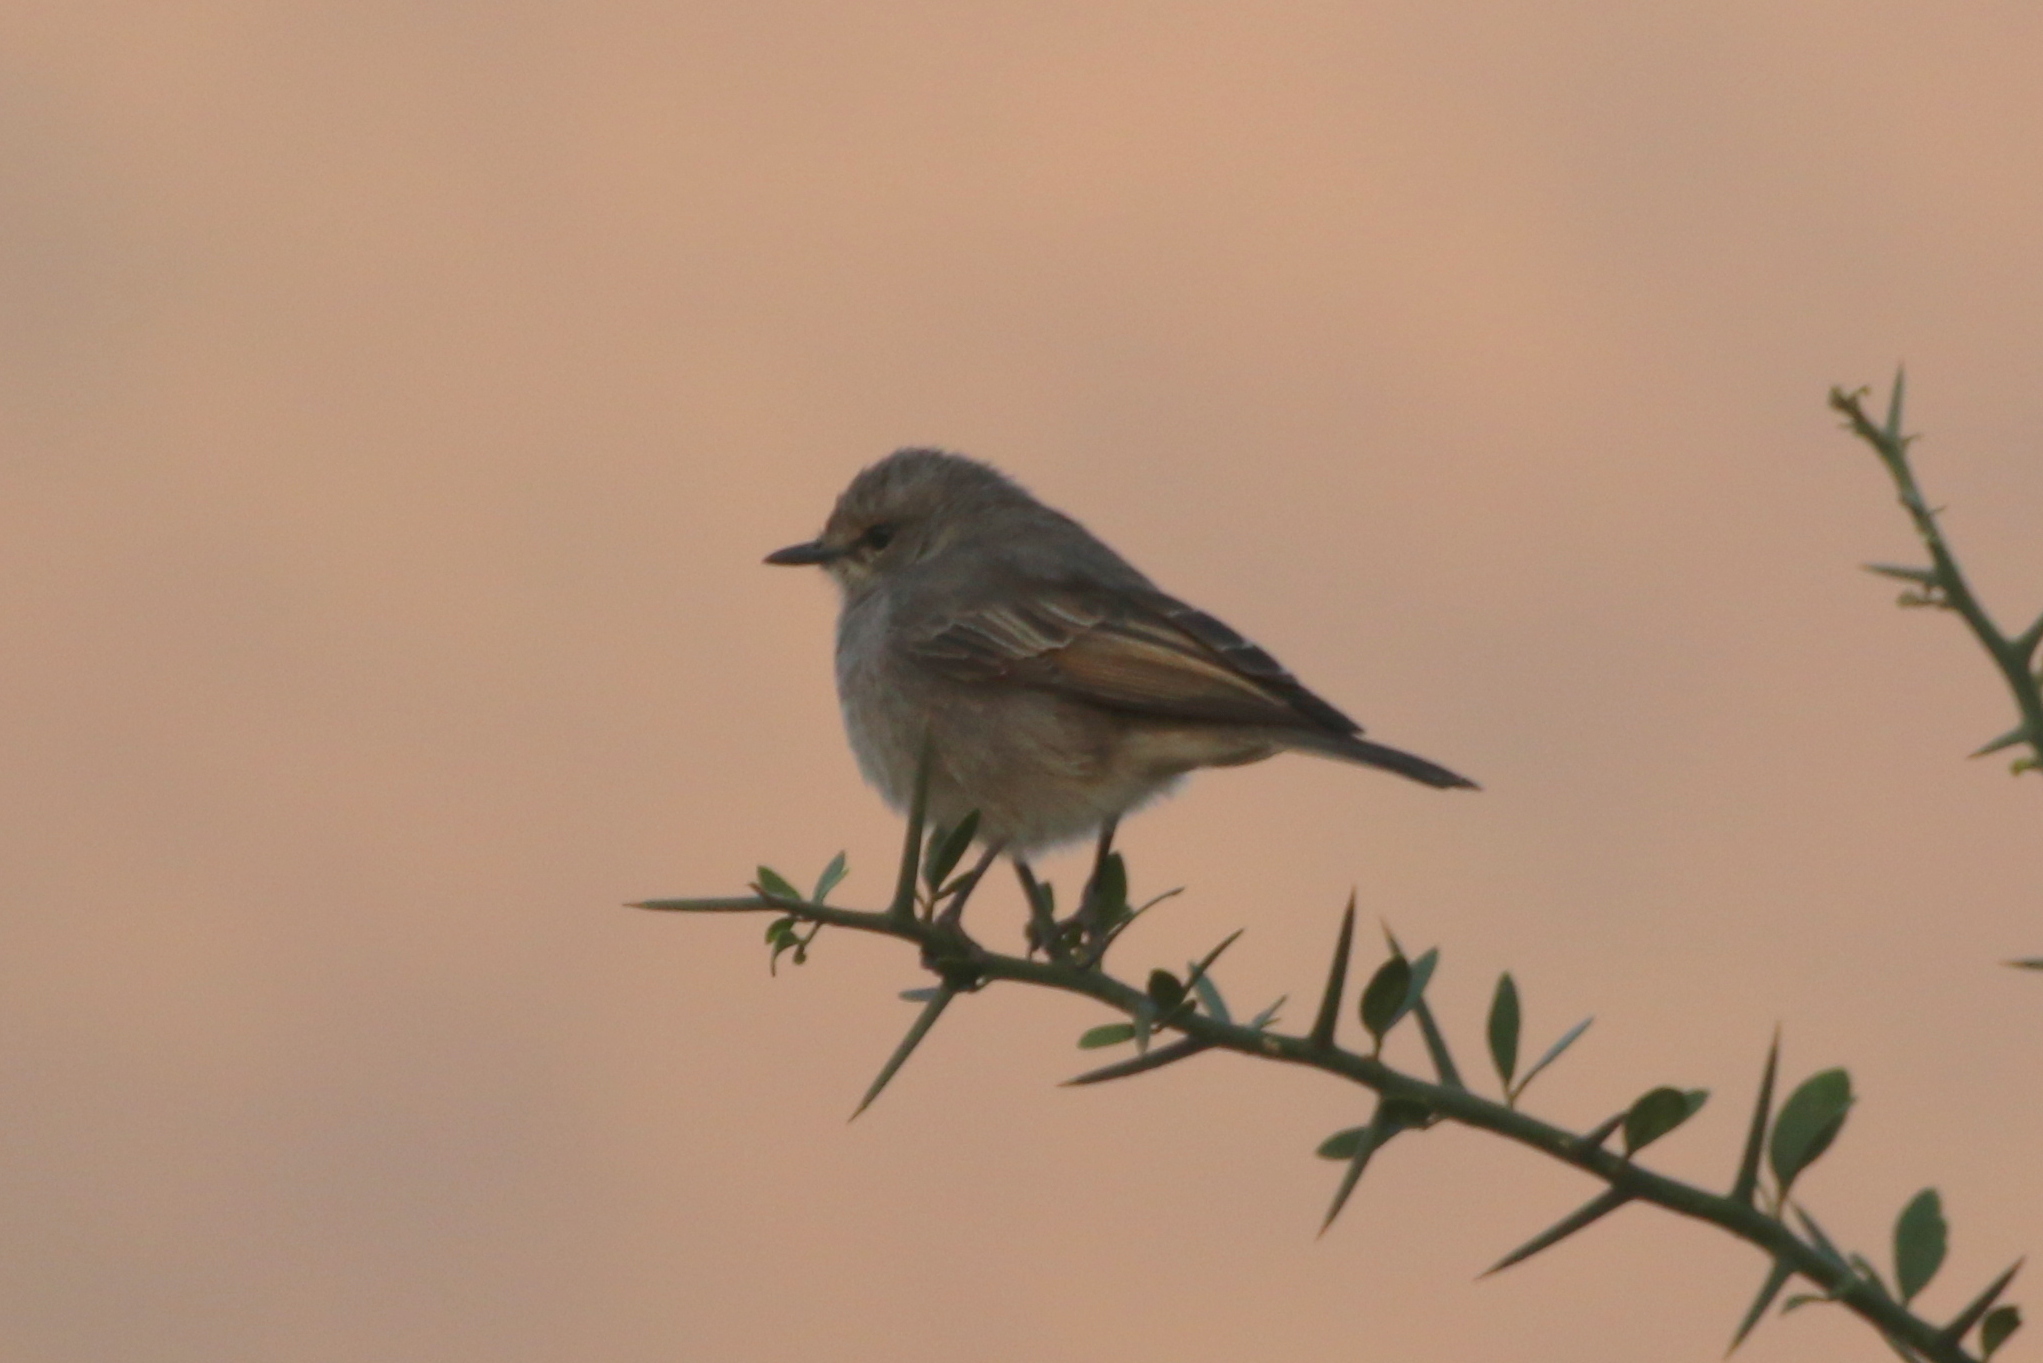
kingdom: Animalia
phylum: Chordata
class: Aves
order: Passeriformes
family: Muscicapidae
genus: Bradornis
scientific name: Bradornis microrhynchus
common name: African grey flycatcher
